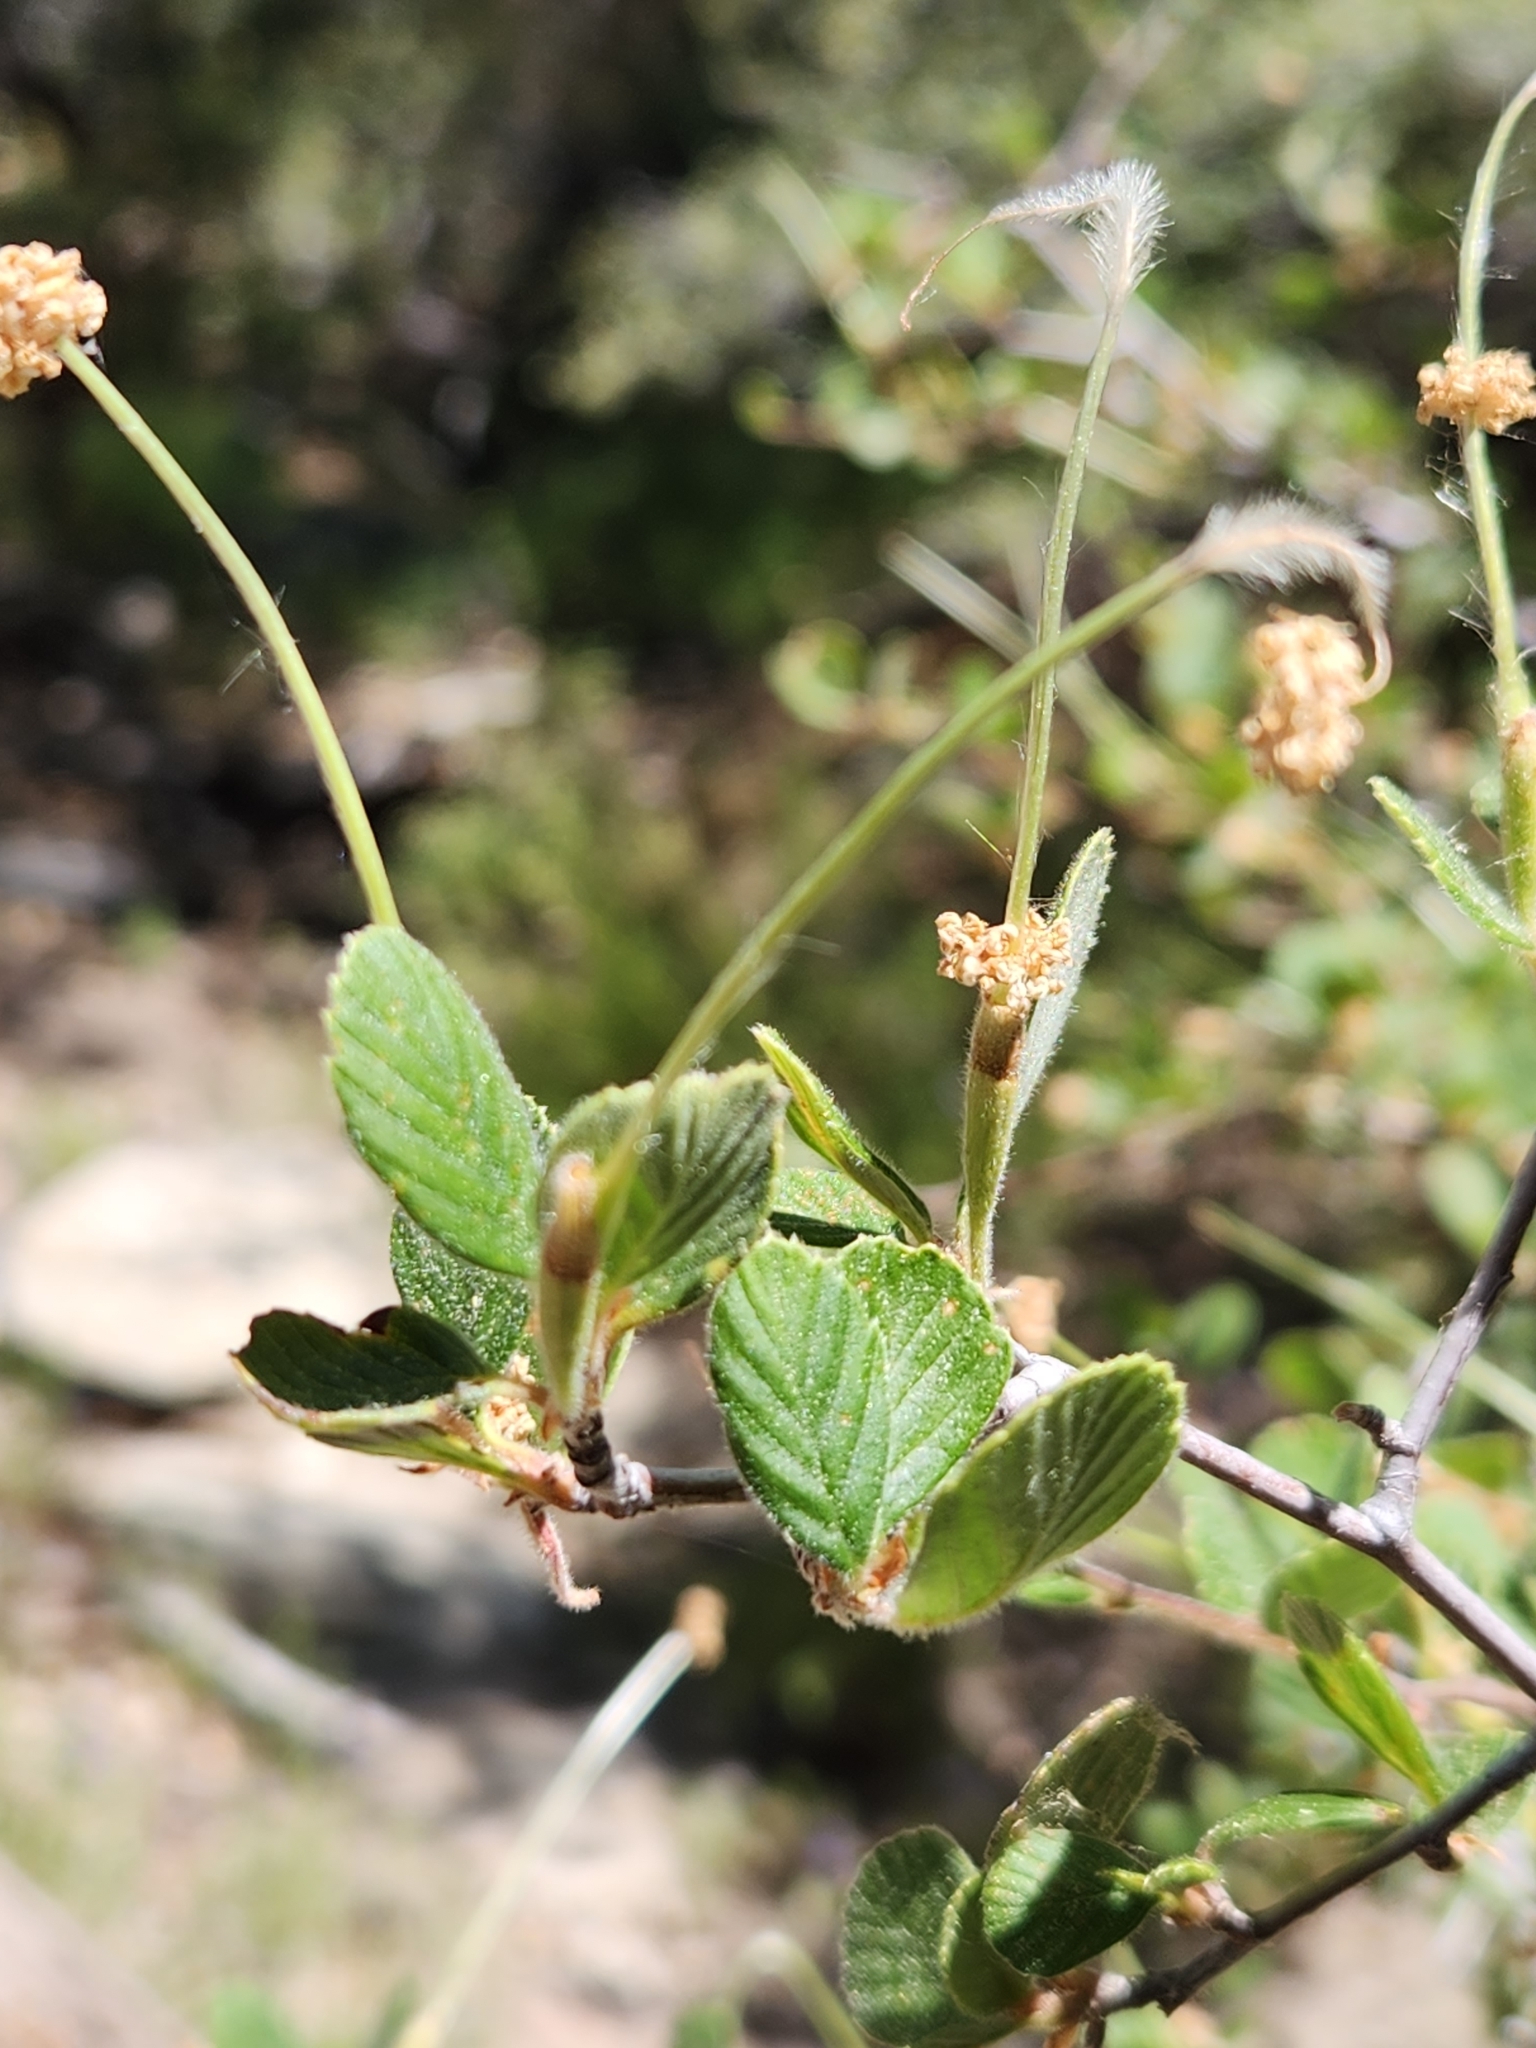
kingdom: Plantae
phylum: Tracheophyta
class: Magnoliopsida
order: Rosales
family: Rosaceae
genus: Cercocarpus
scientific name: Cercocarpus betuloides
